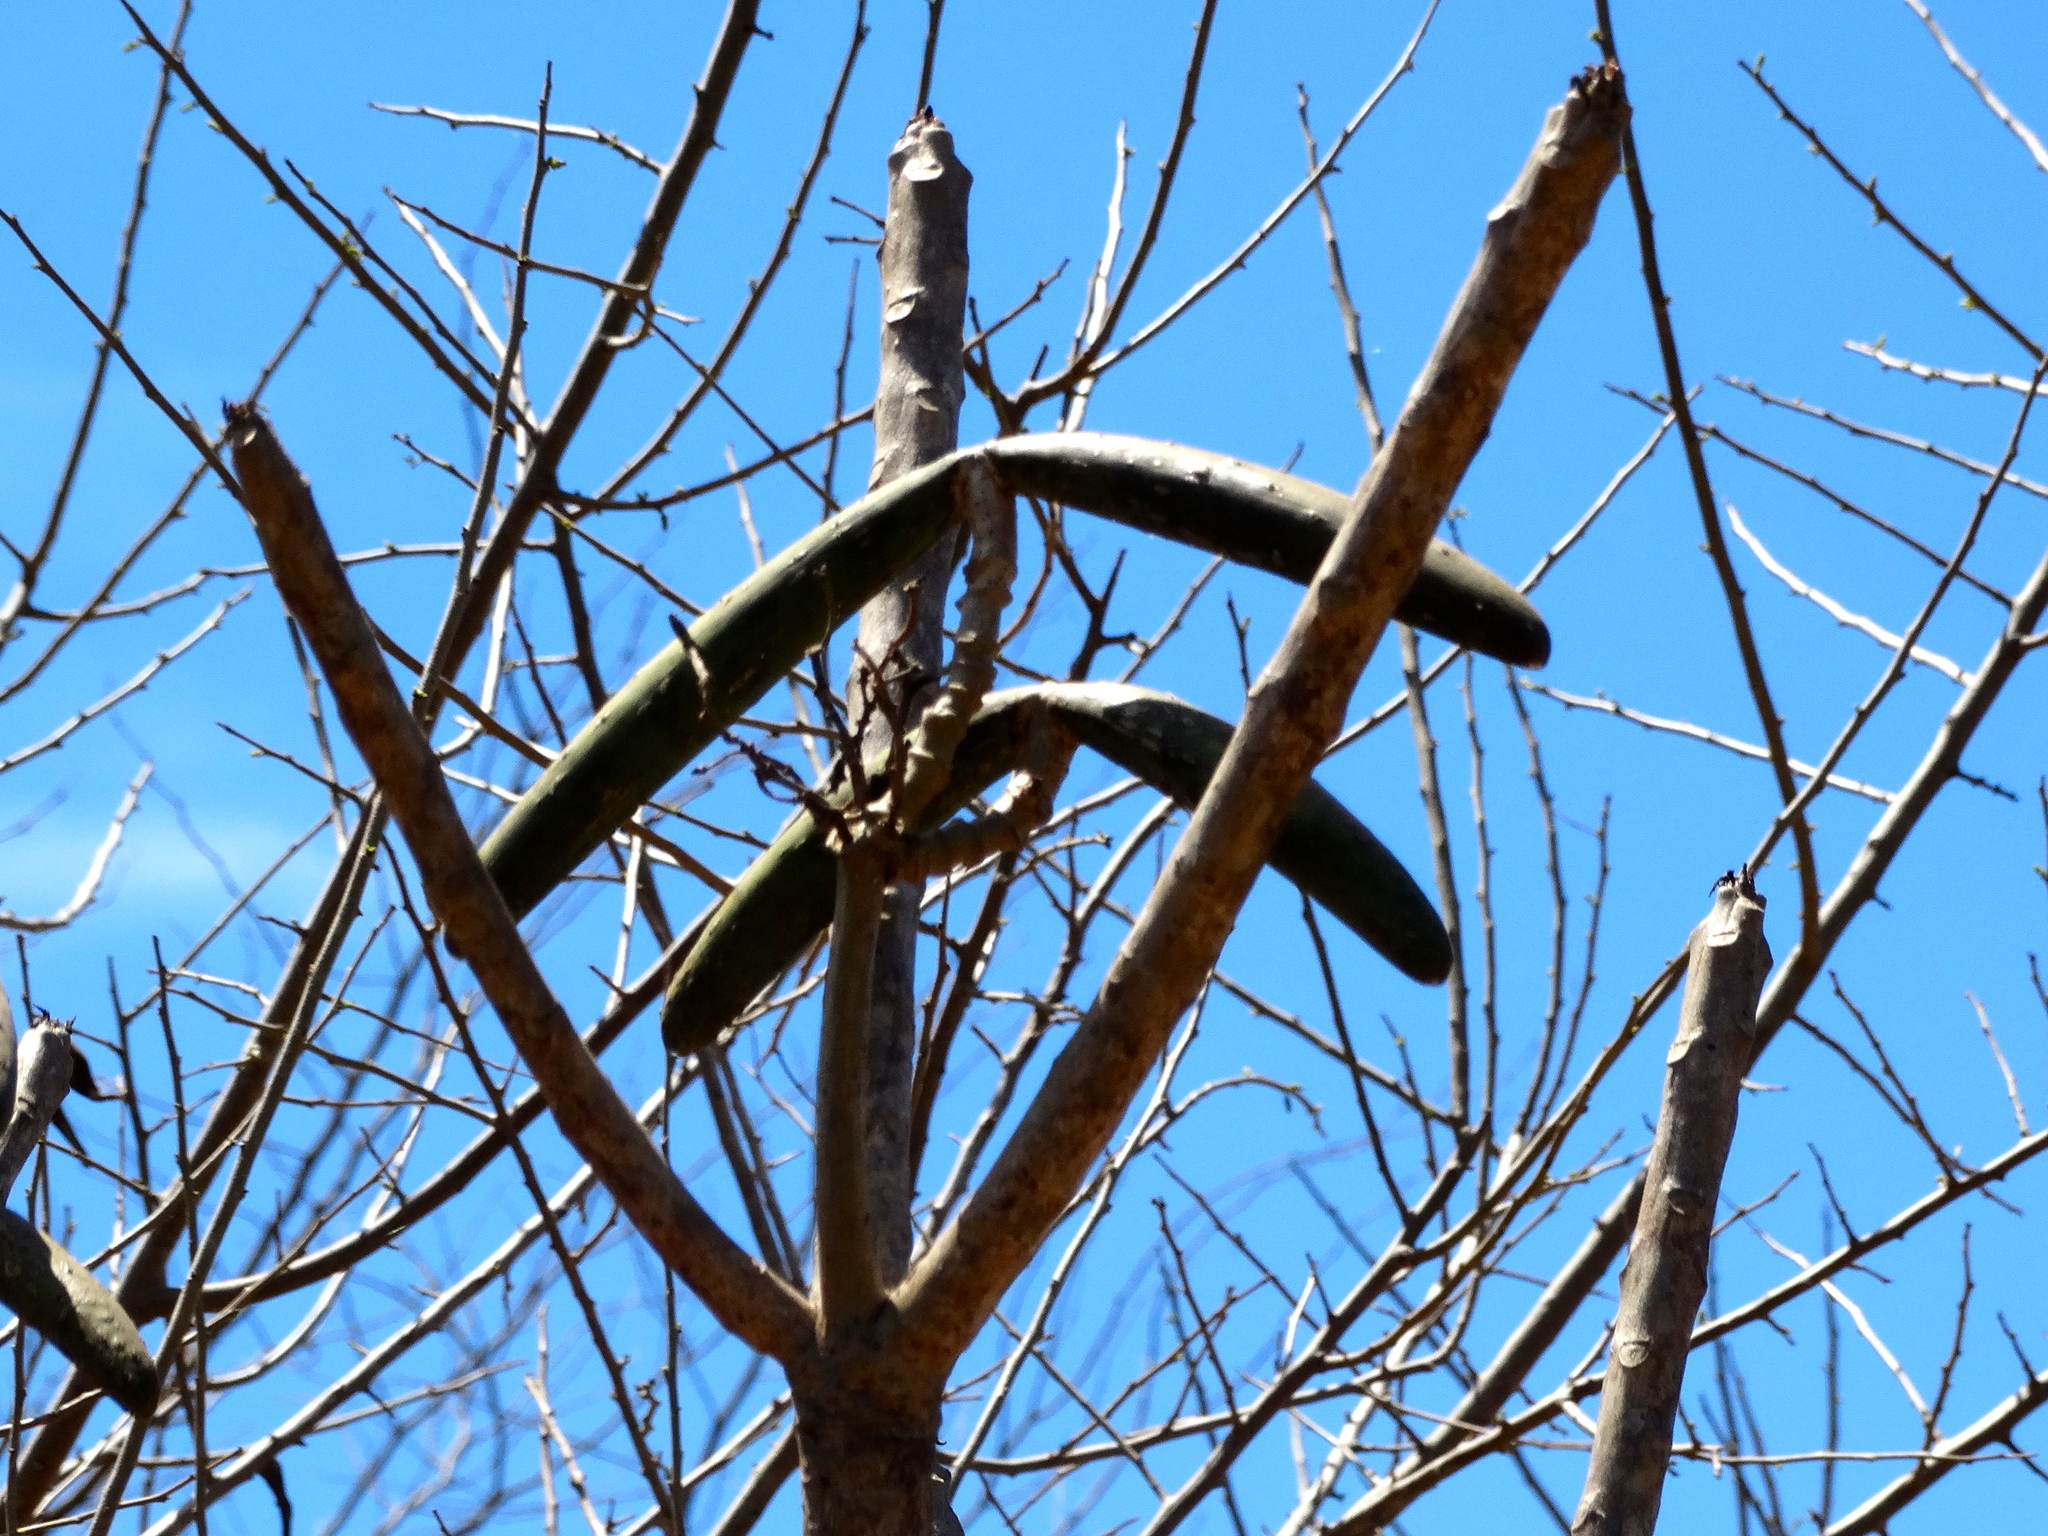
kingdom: Plantae
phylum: Tracheophyta
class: Magnoliopsida
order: Gentianales
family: Apocynaceae
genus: Plumeria
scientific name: Plumeria rubra
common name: Pagoda-tree
